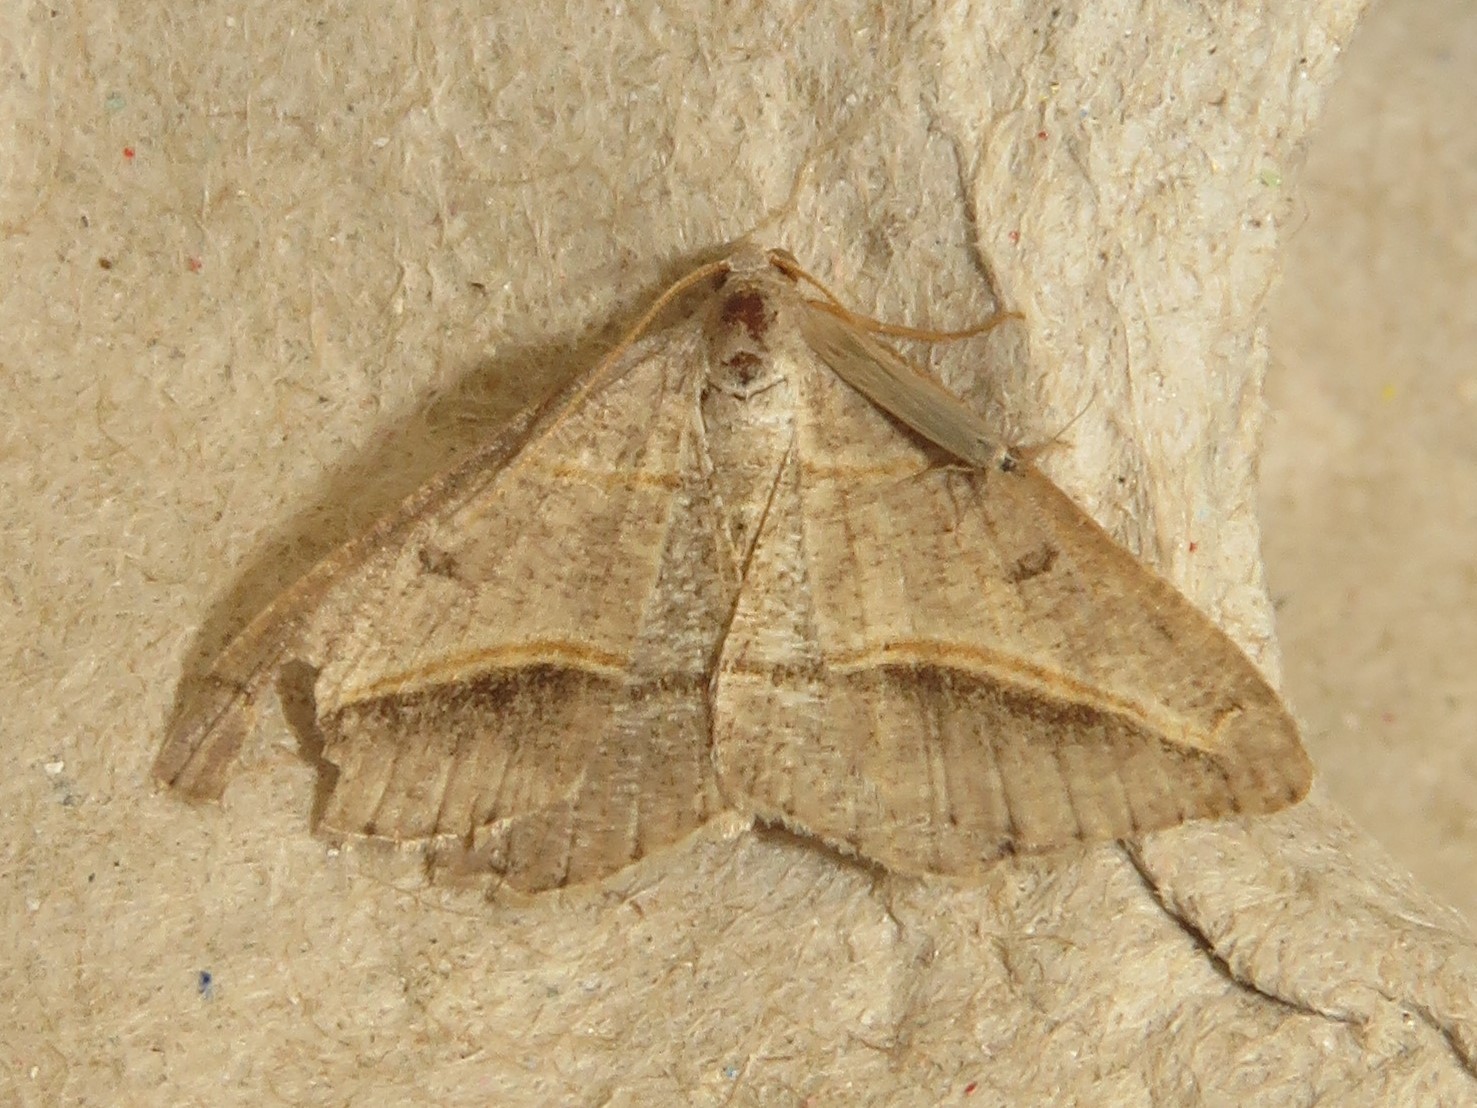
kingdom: Animalia
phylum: Arthropoda
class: Insecta
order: Lepidoptera
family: Geometridae
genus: Digrammia
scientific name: Digrammia mellistrigata
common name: Yellow-lined angle
